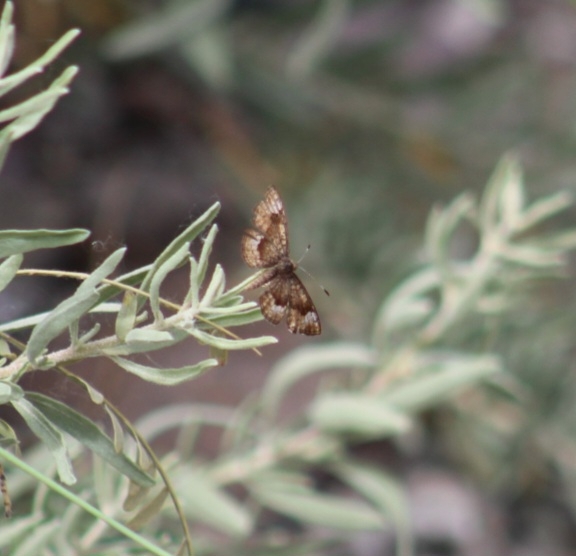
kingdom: Animalia
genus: Calephelis
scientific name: Calephelis nemesis
